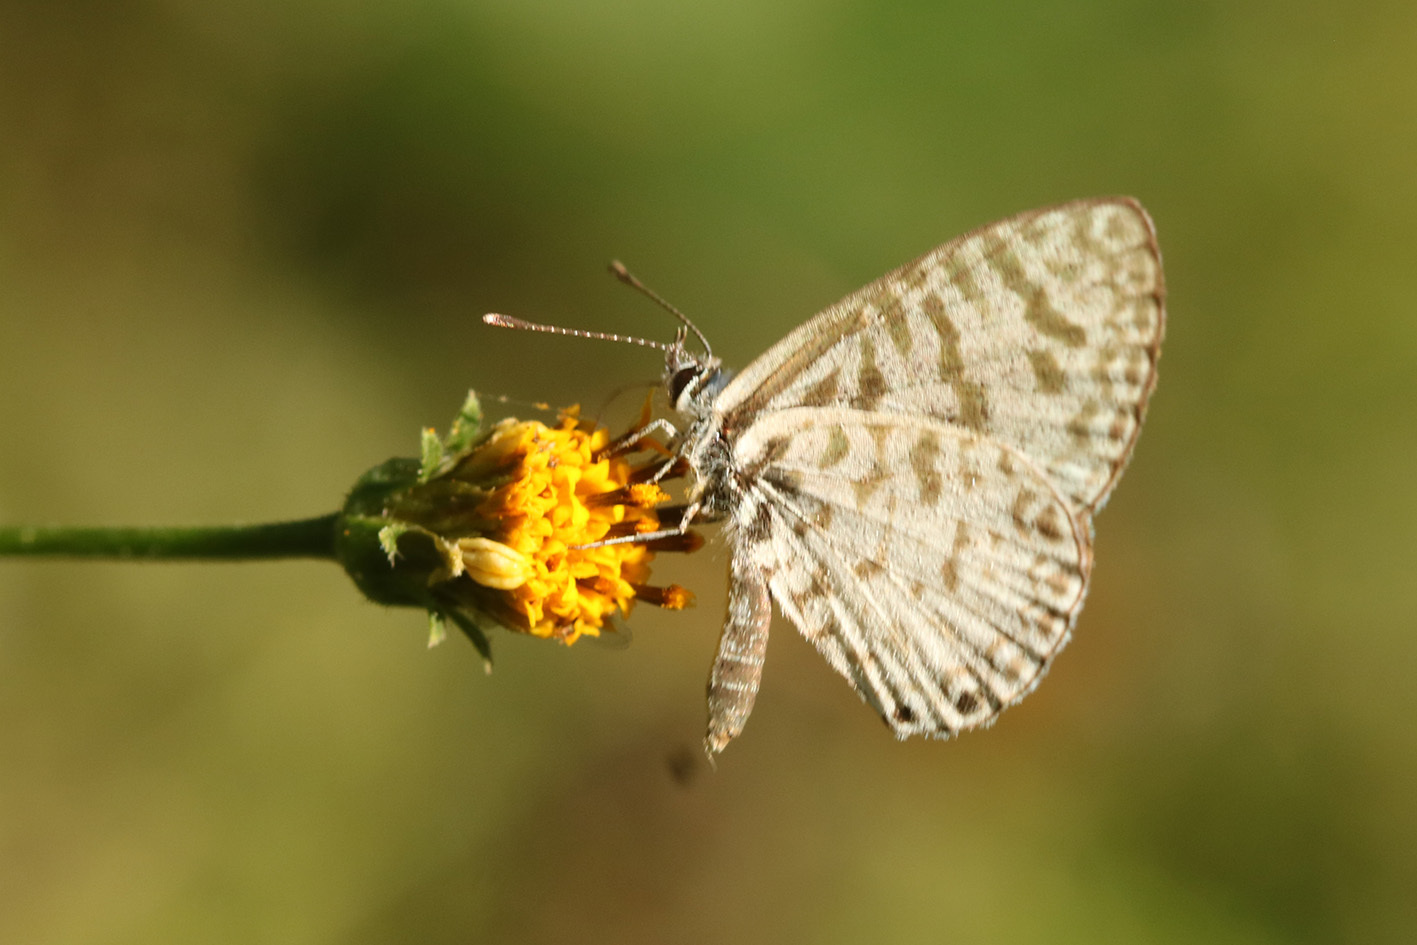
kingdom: Animalia
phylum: Arthropoda
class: Insecta
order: Lepidoptera
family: Lycaenidae
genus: Leptotes
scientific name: Leptotes cassius
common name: Cassius blue
